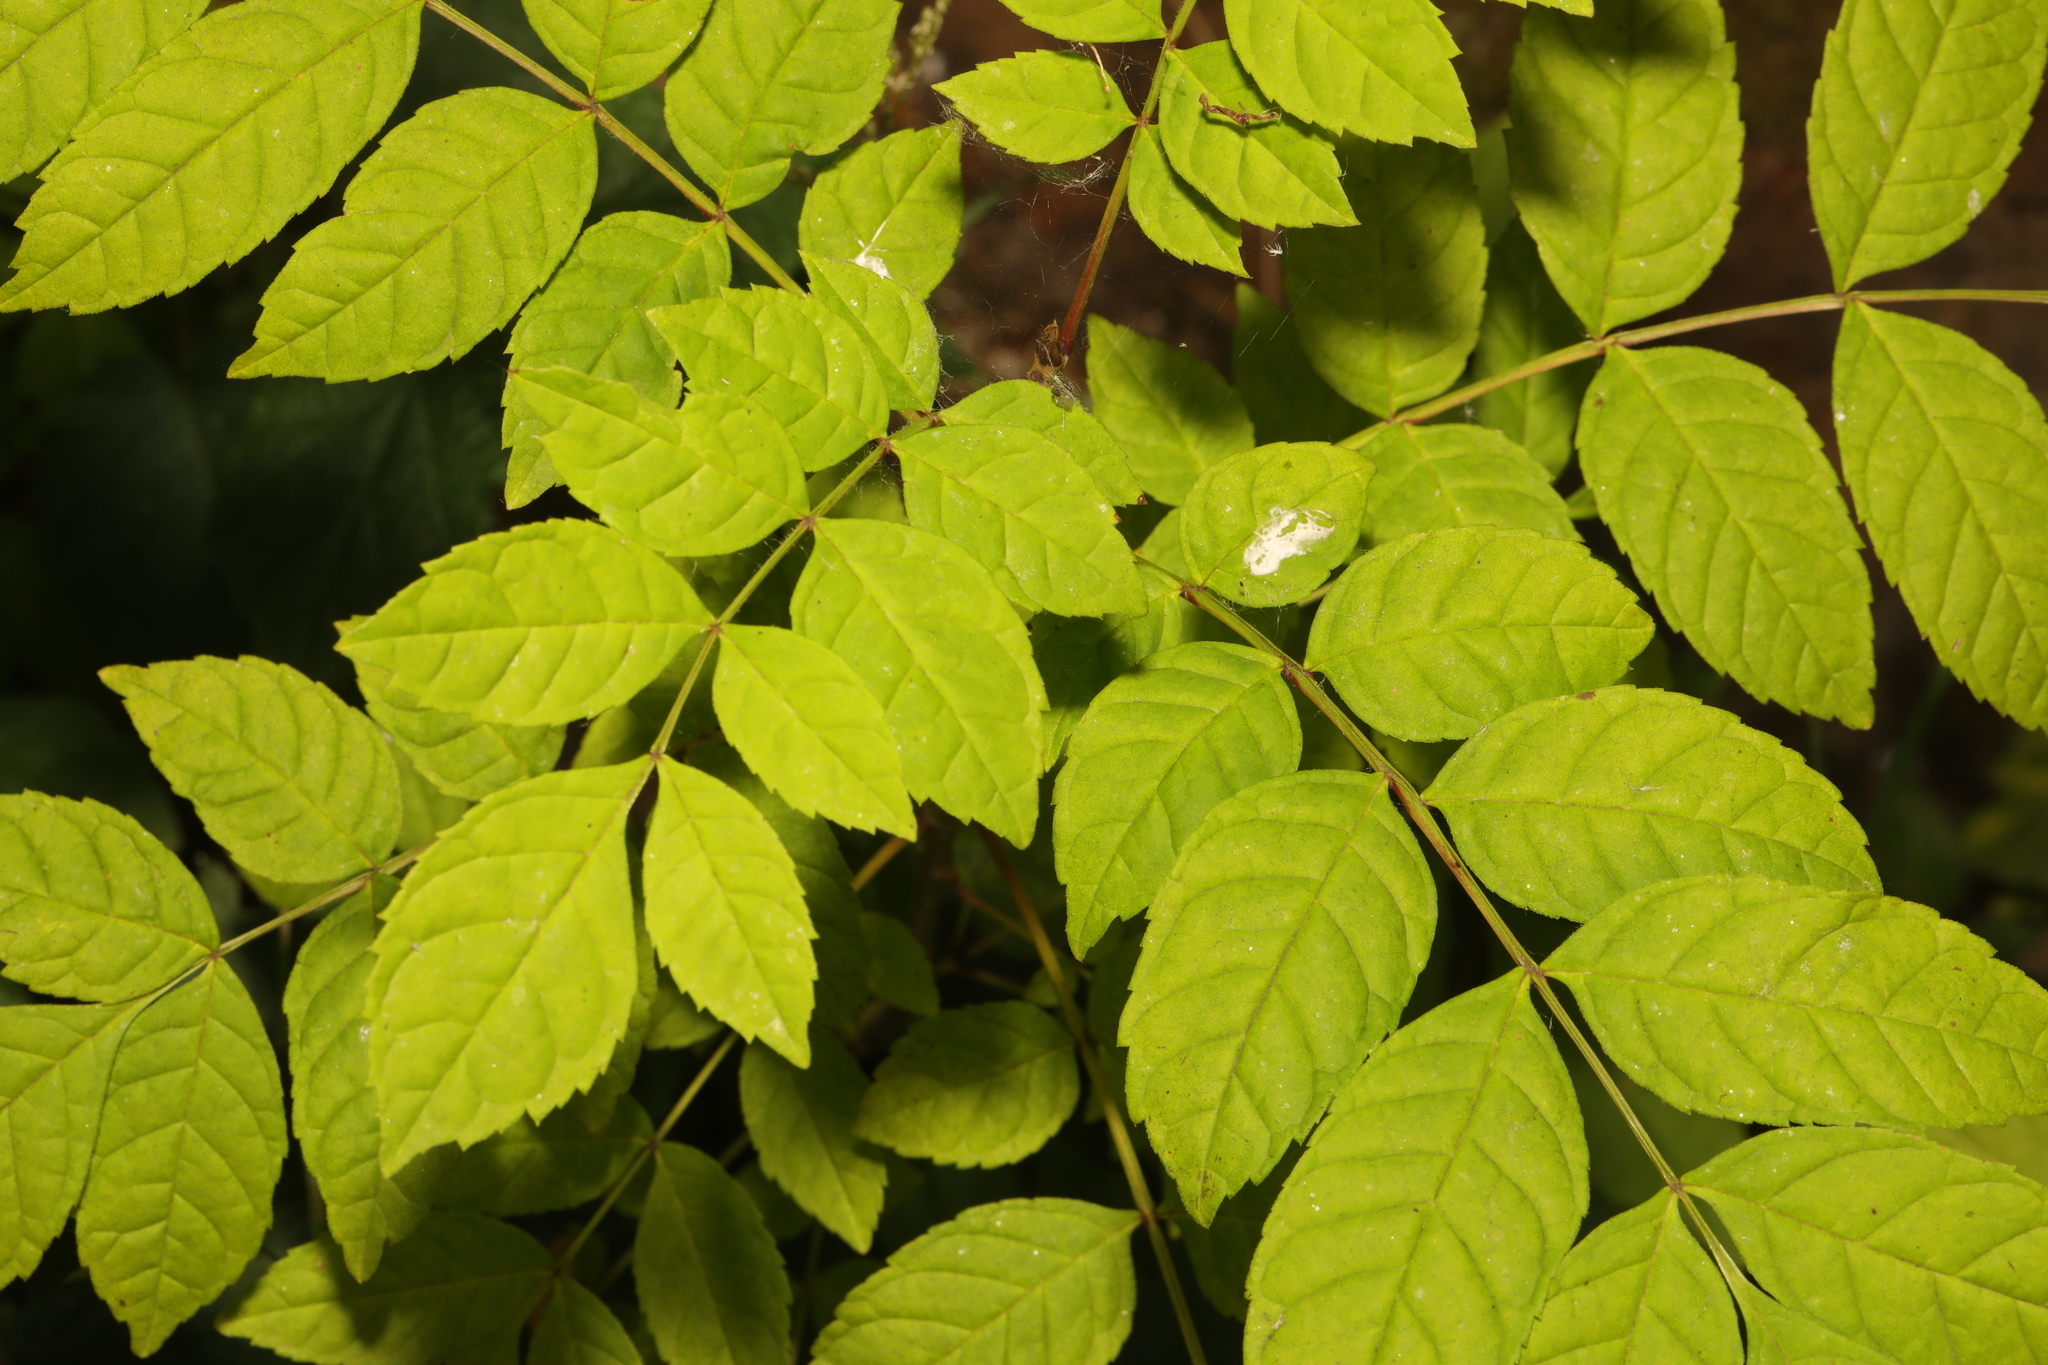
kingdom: Plantae
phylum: Tracheophyta
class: Magnoliopsida
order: Lamiales
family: Oleaceae
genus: Fraxinus
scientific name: Fraxinus excelsior
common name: European ash
